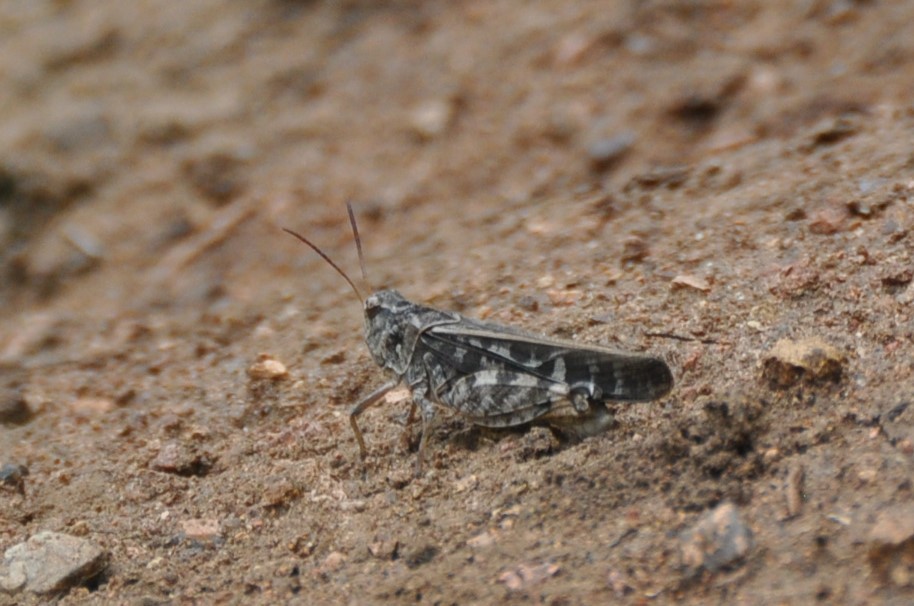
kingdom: Animalia
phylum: Arthropoda
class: Insecta
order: Orthoptera
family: Acrididae
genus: Pardalophora
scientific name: Pardalophora phoenicoptera
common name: Orange-winged grasshopper
